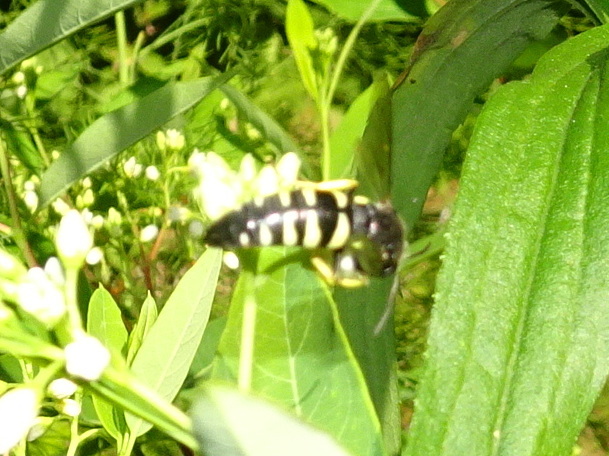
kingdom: Animalia
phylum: Arthropoda
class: Insecta
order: Hymenoptera
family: Crabronidae
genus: Bicyrtes
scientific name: Bicyrtes quadrifasciatus
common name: Four-banded stink bug hunter wasp
